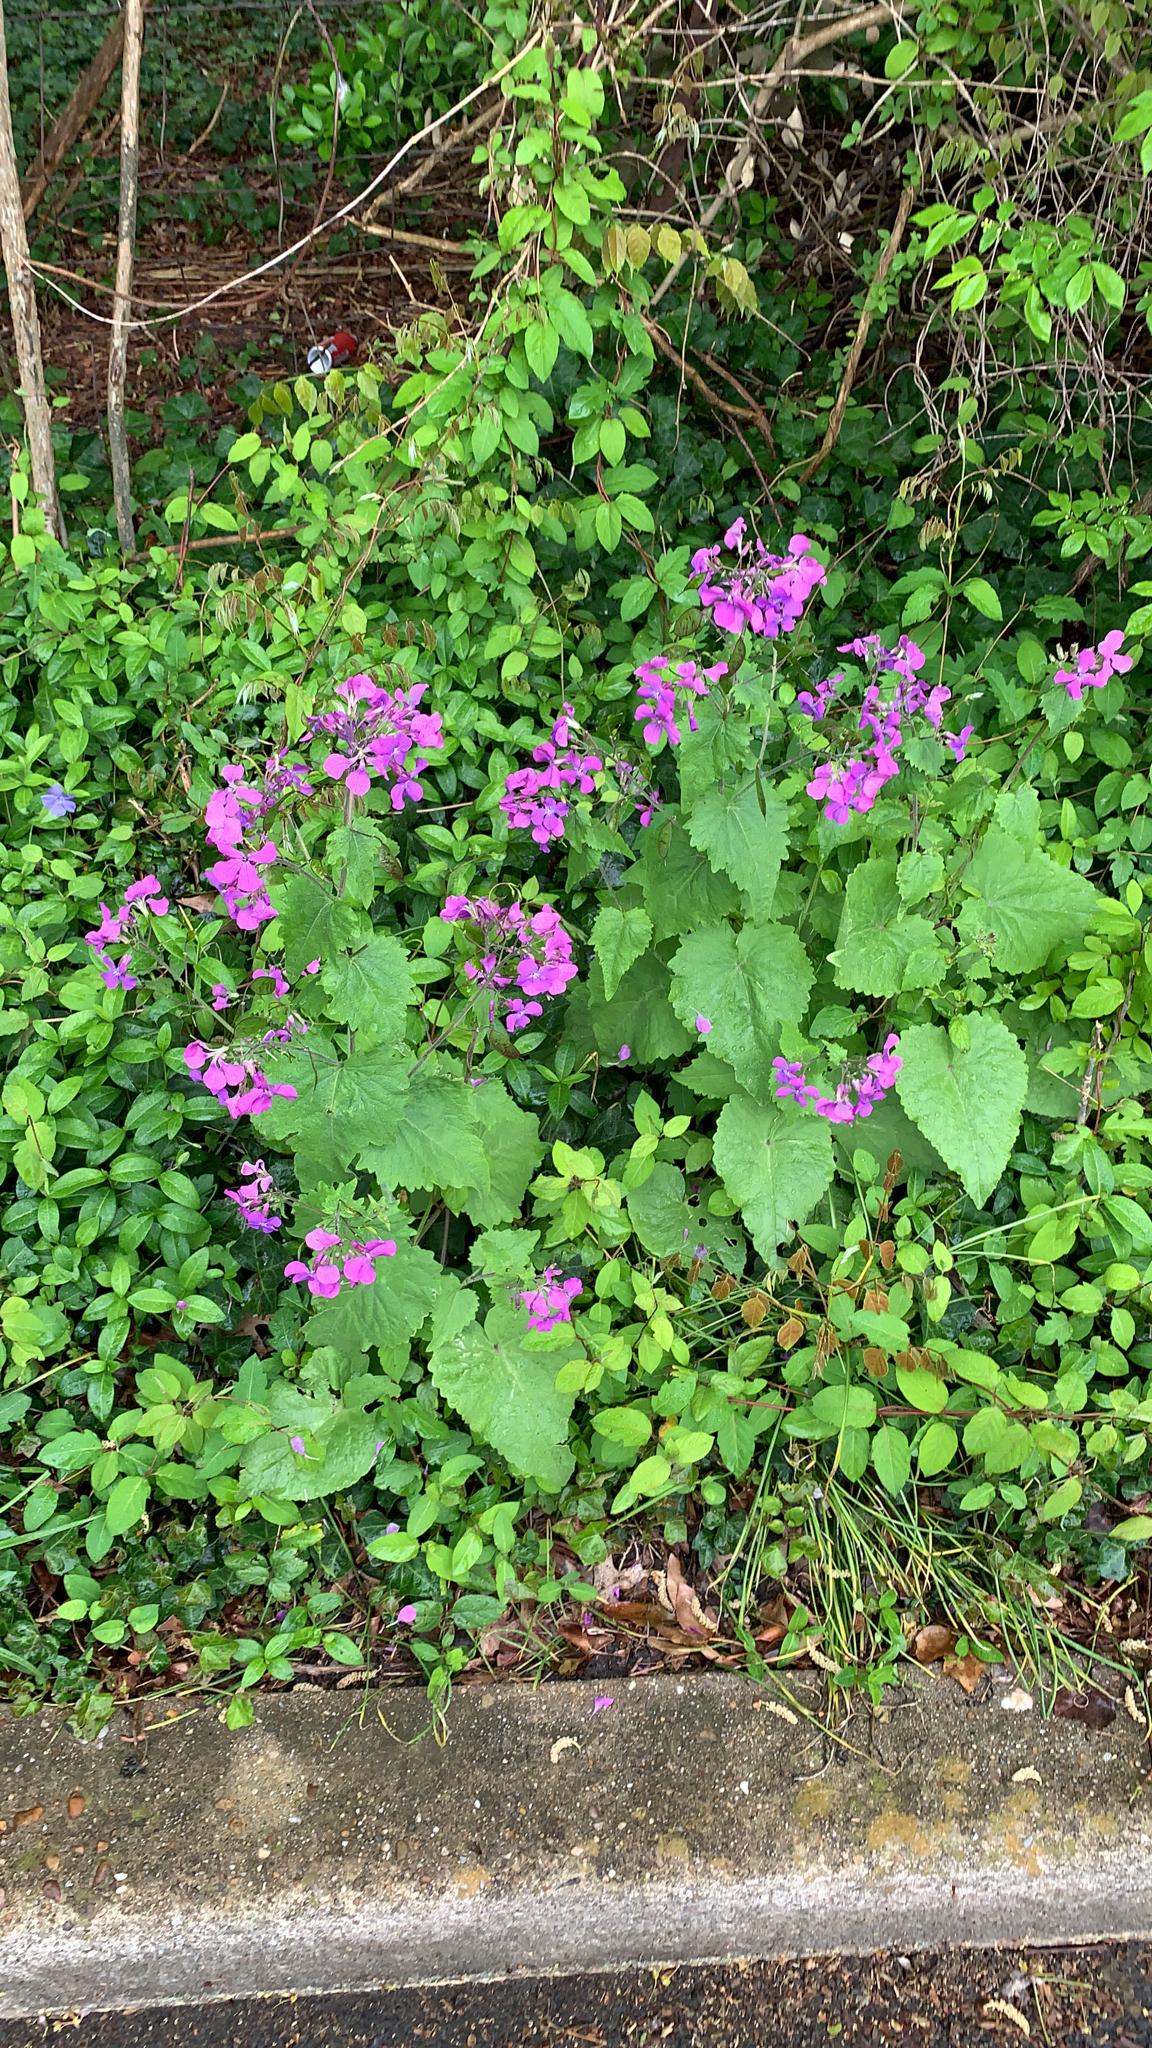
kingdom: Plantae
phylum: Tracheophyta
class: Magnoliopsida
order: Brassicales
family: Brassicaceae
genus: Lunaria
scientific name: Lunaria annua
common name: Honesty
